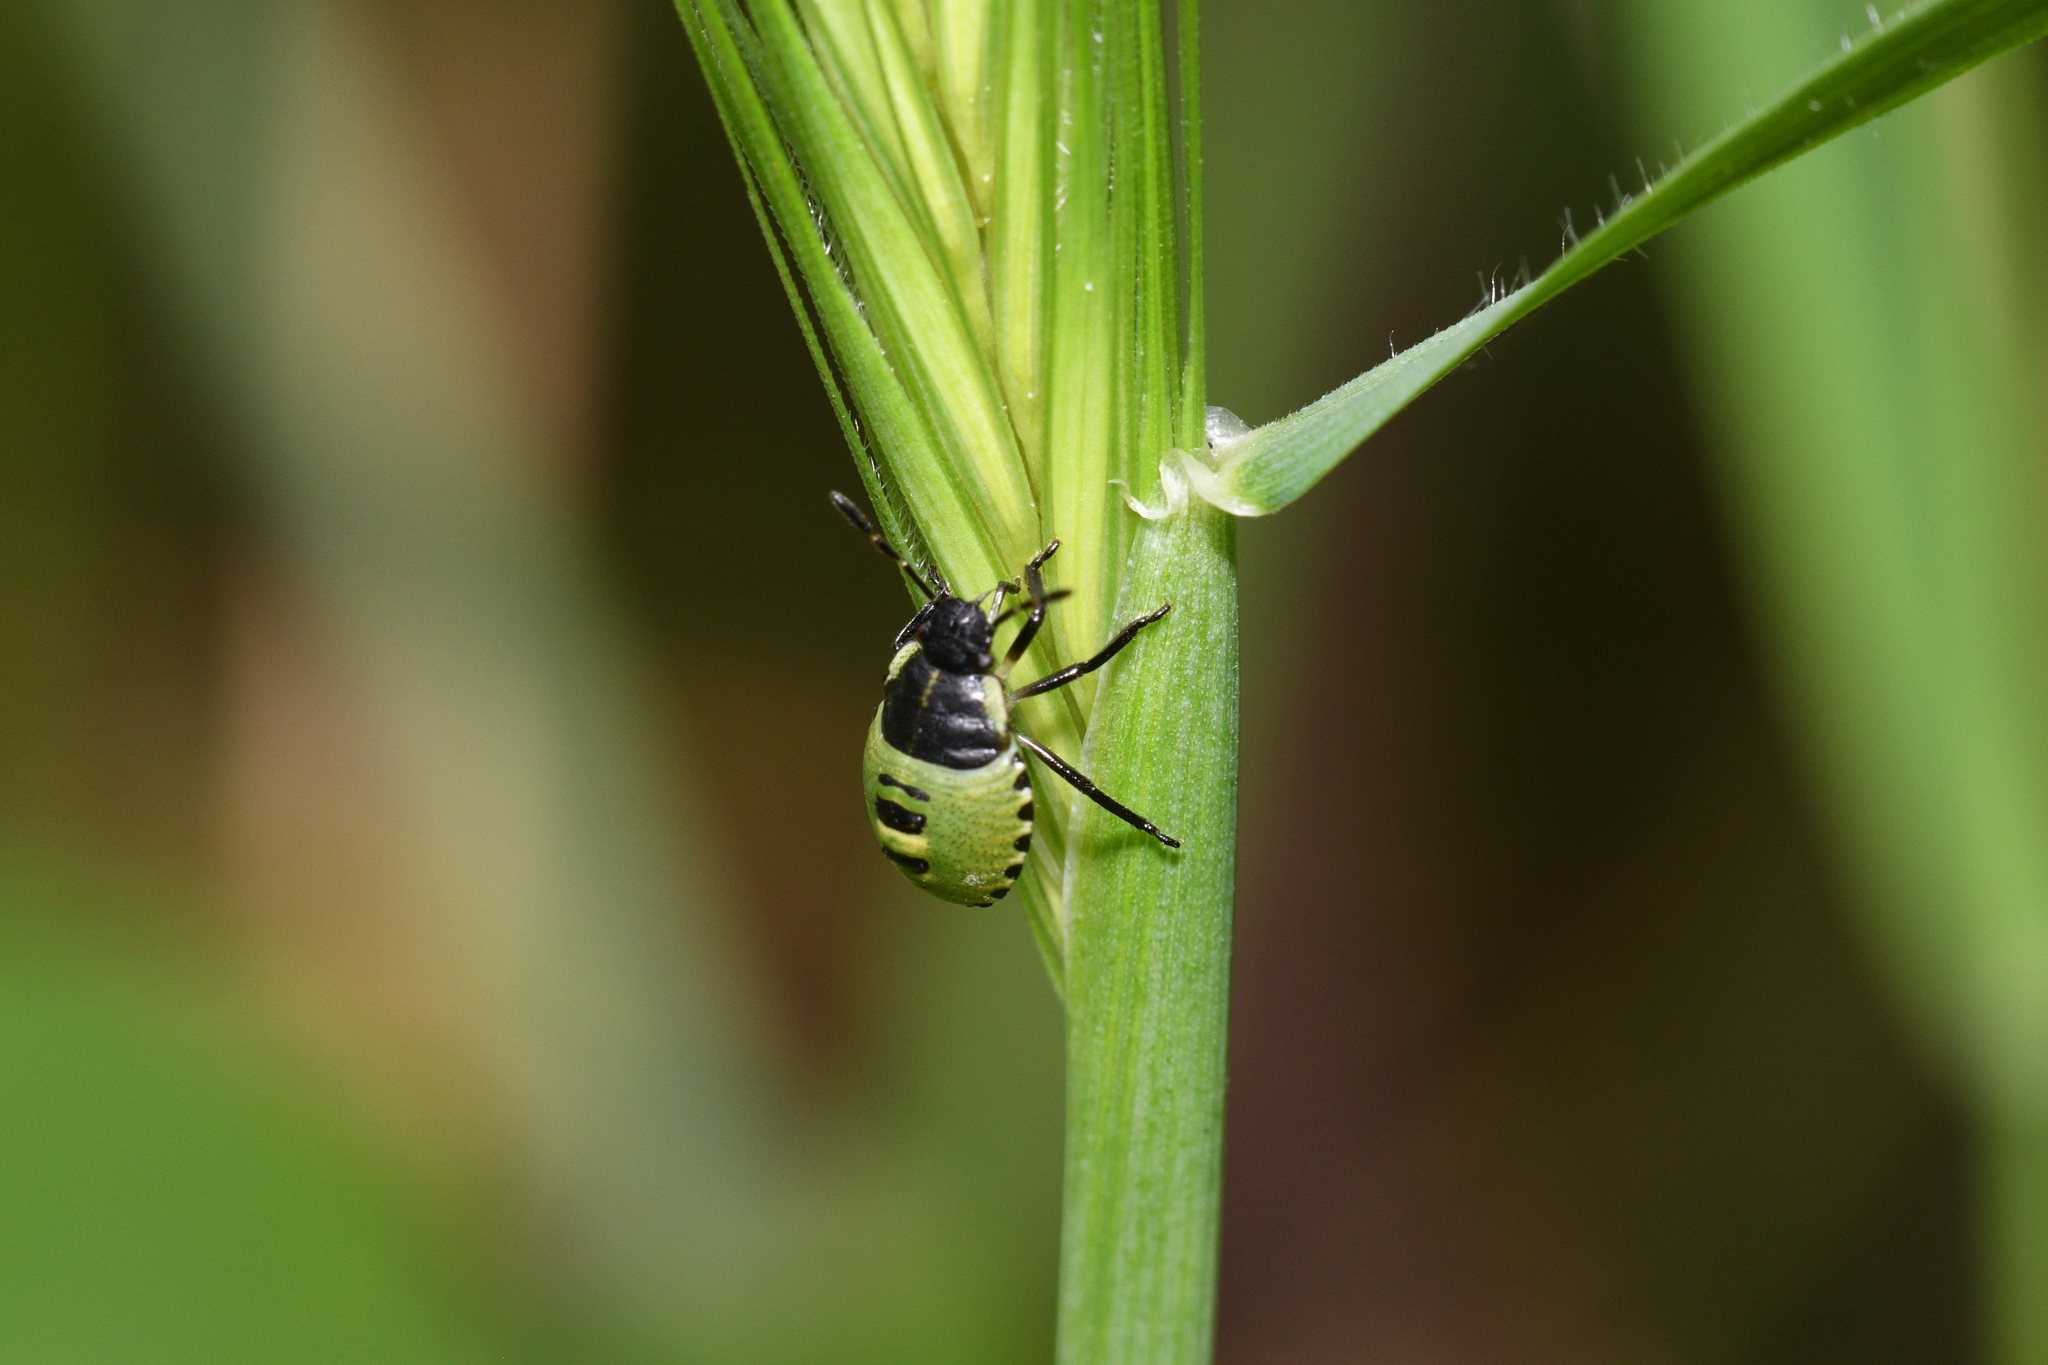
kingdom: Animalia
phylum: Arthropoda
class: Insecta
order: Hemiptera
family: Pentatomidae
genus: Palomena
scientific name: Palomena prasina
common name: Green shieldbug
